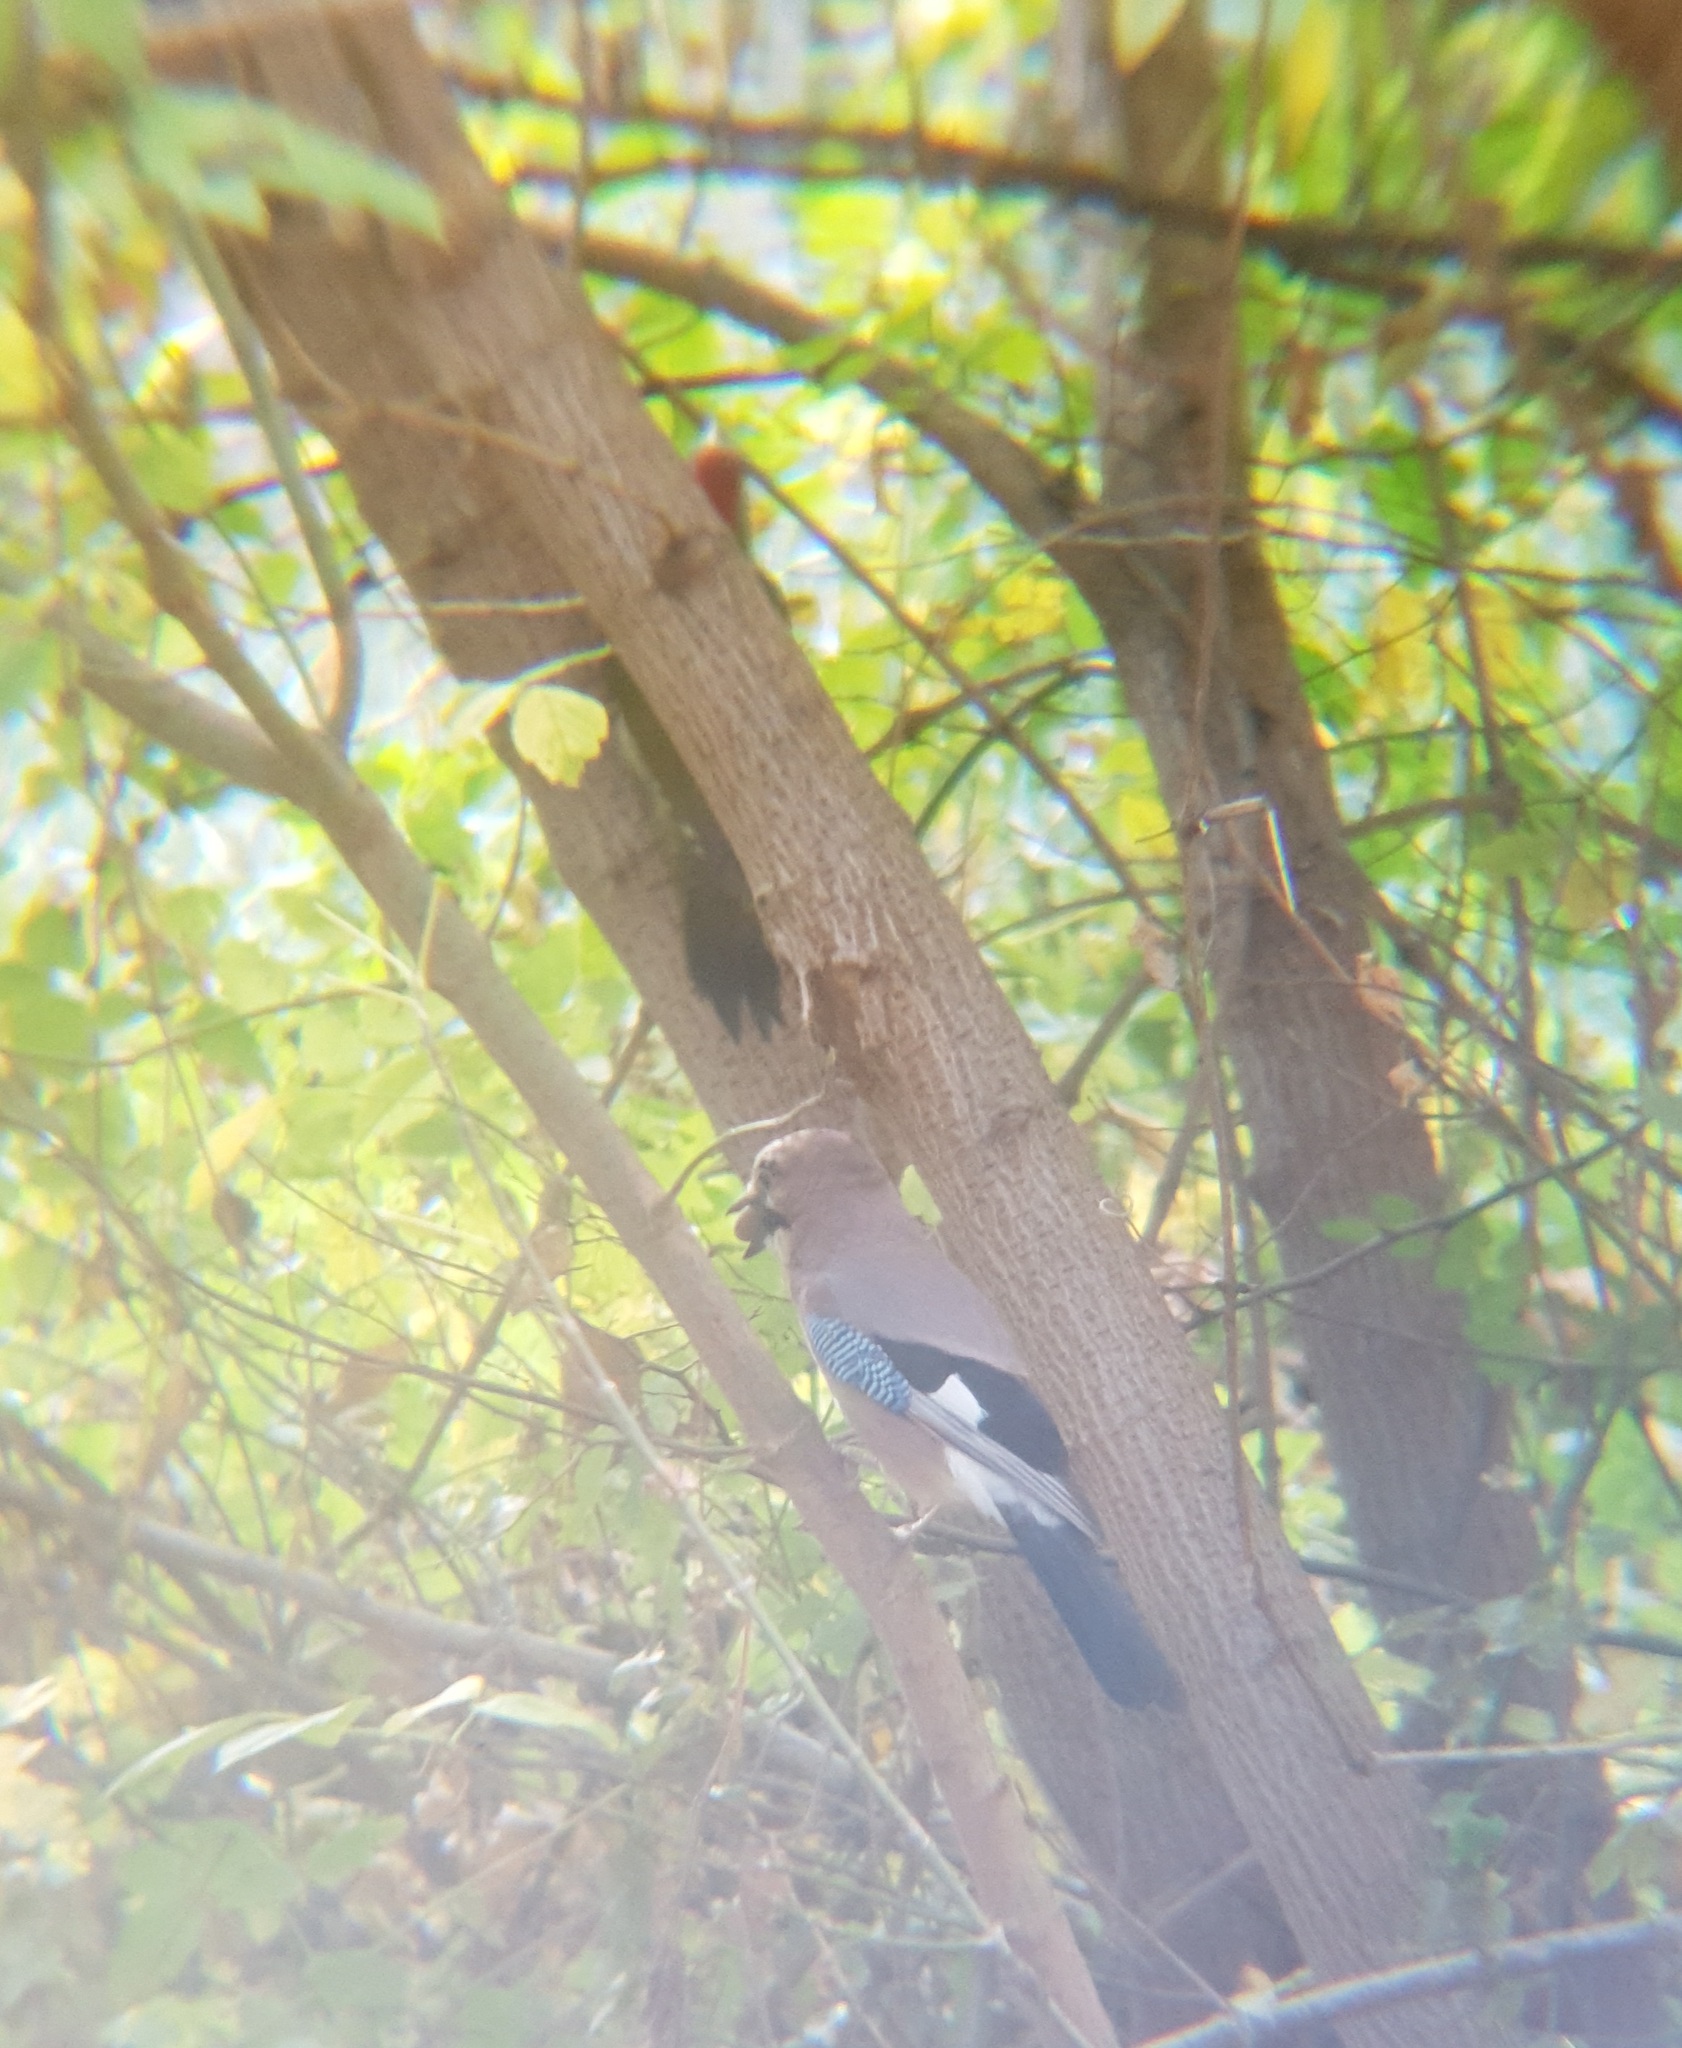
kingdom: Animalia
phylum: Chordata
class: Aves
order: Piciformes
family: Picidae
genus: Picus
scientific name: Picus viridis
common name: European green woodpecker
